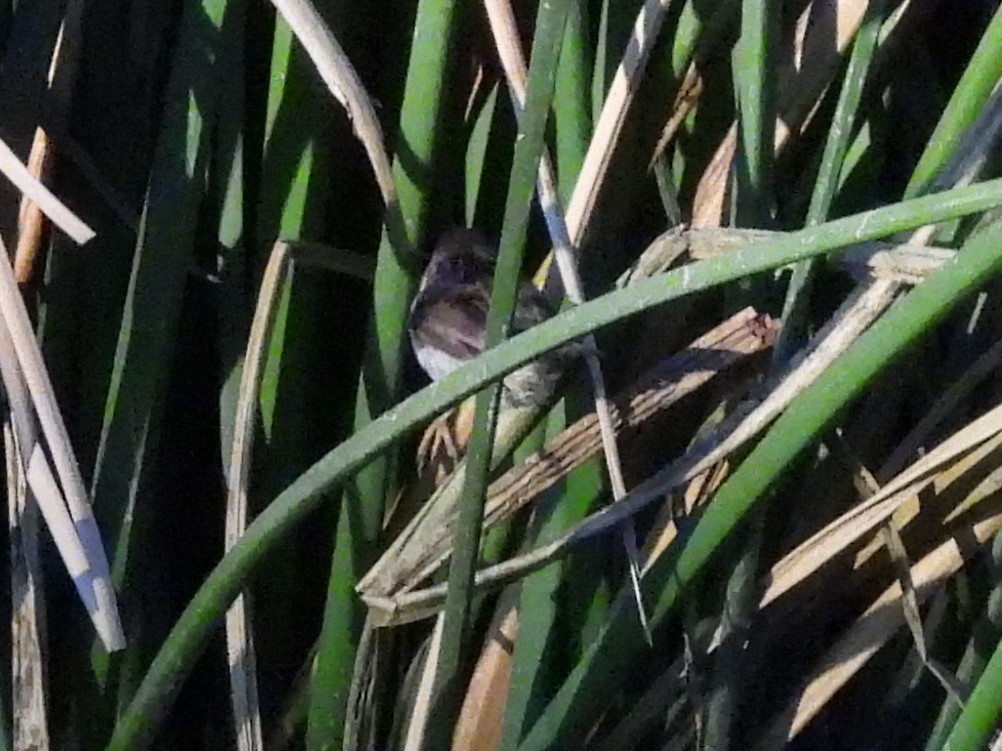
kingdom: Animalia
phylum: Chordata
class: Aves
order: Passeriformes
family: Troglodytidae
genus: Cistothorus
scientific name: Cistothorus palustris
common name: Marsh wren
